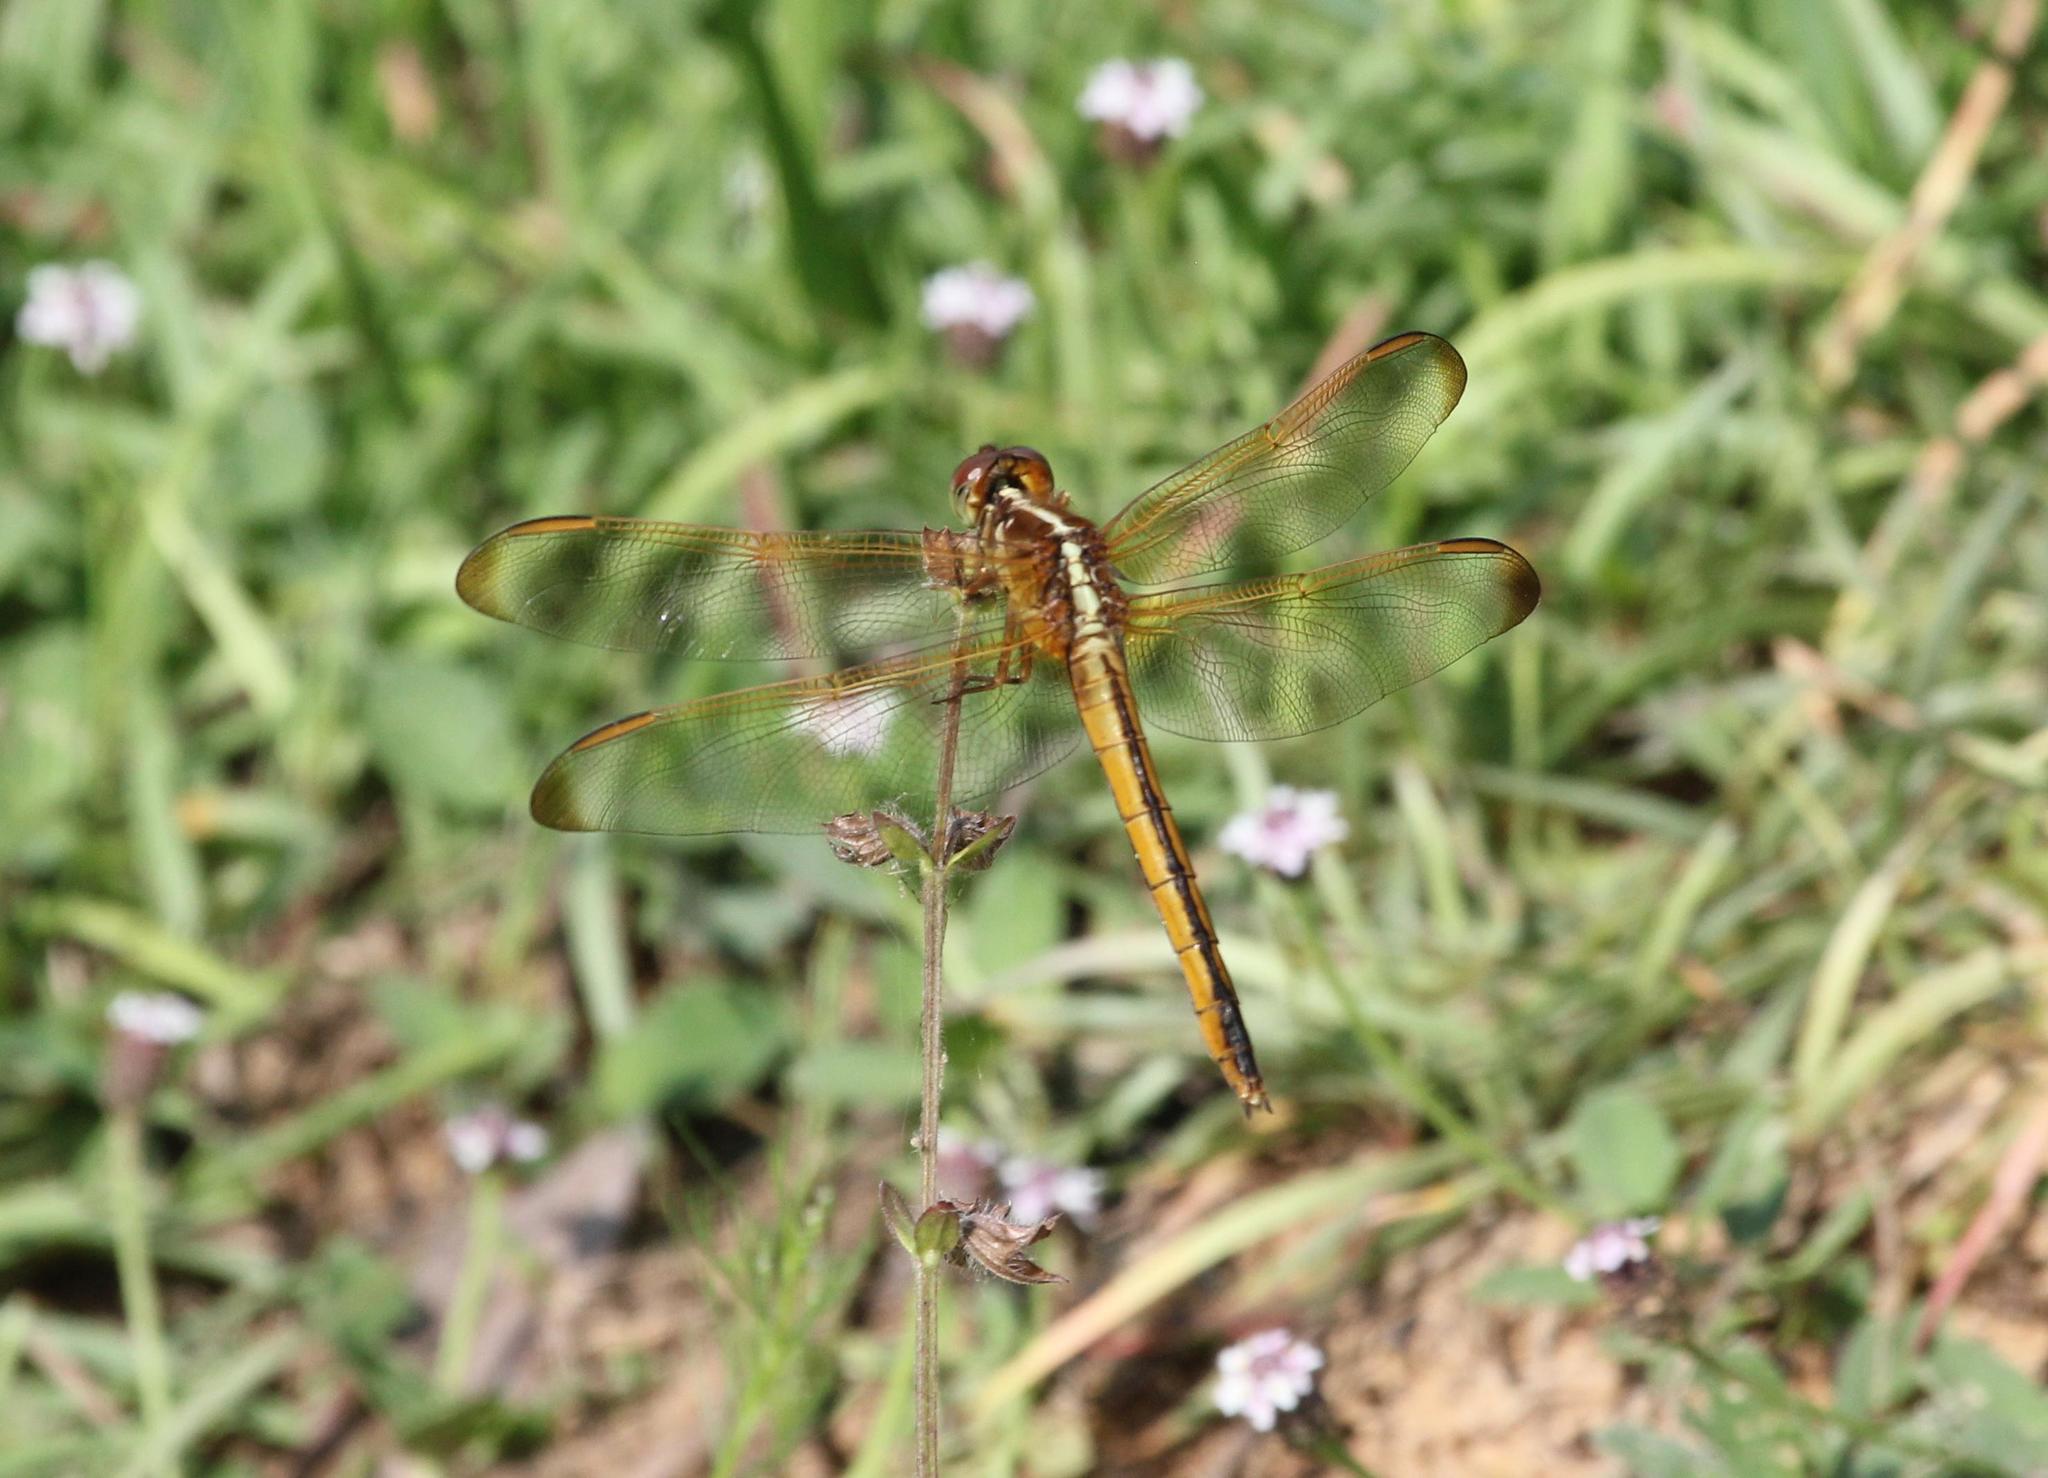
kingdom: Animalia
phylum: Arthropoda
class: Insecta
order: Odonata
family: Libellulidae
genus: Libellula
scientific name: Libellula needhami
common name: Needham's skimmer
